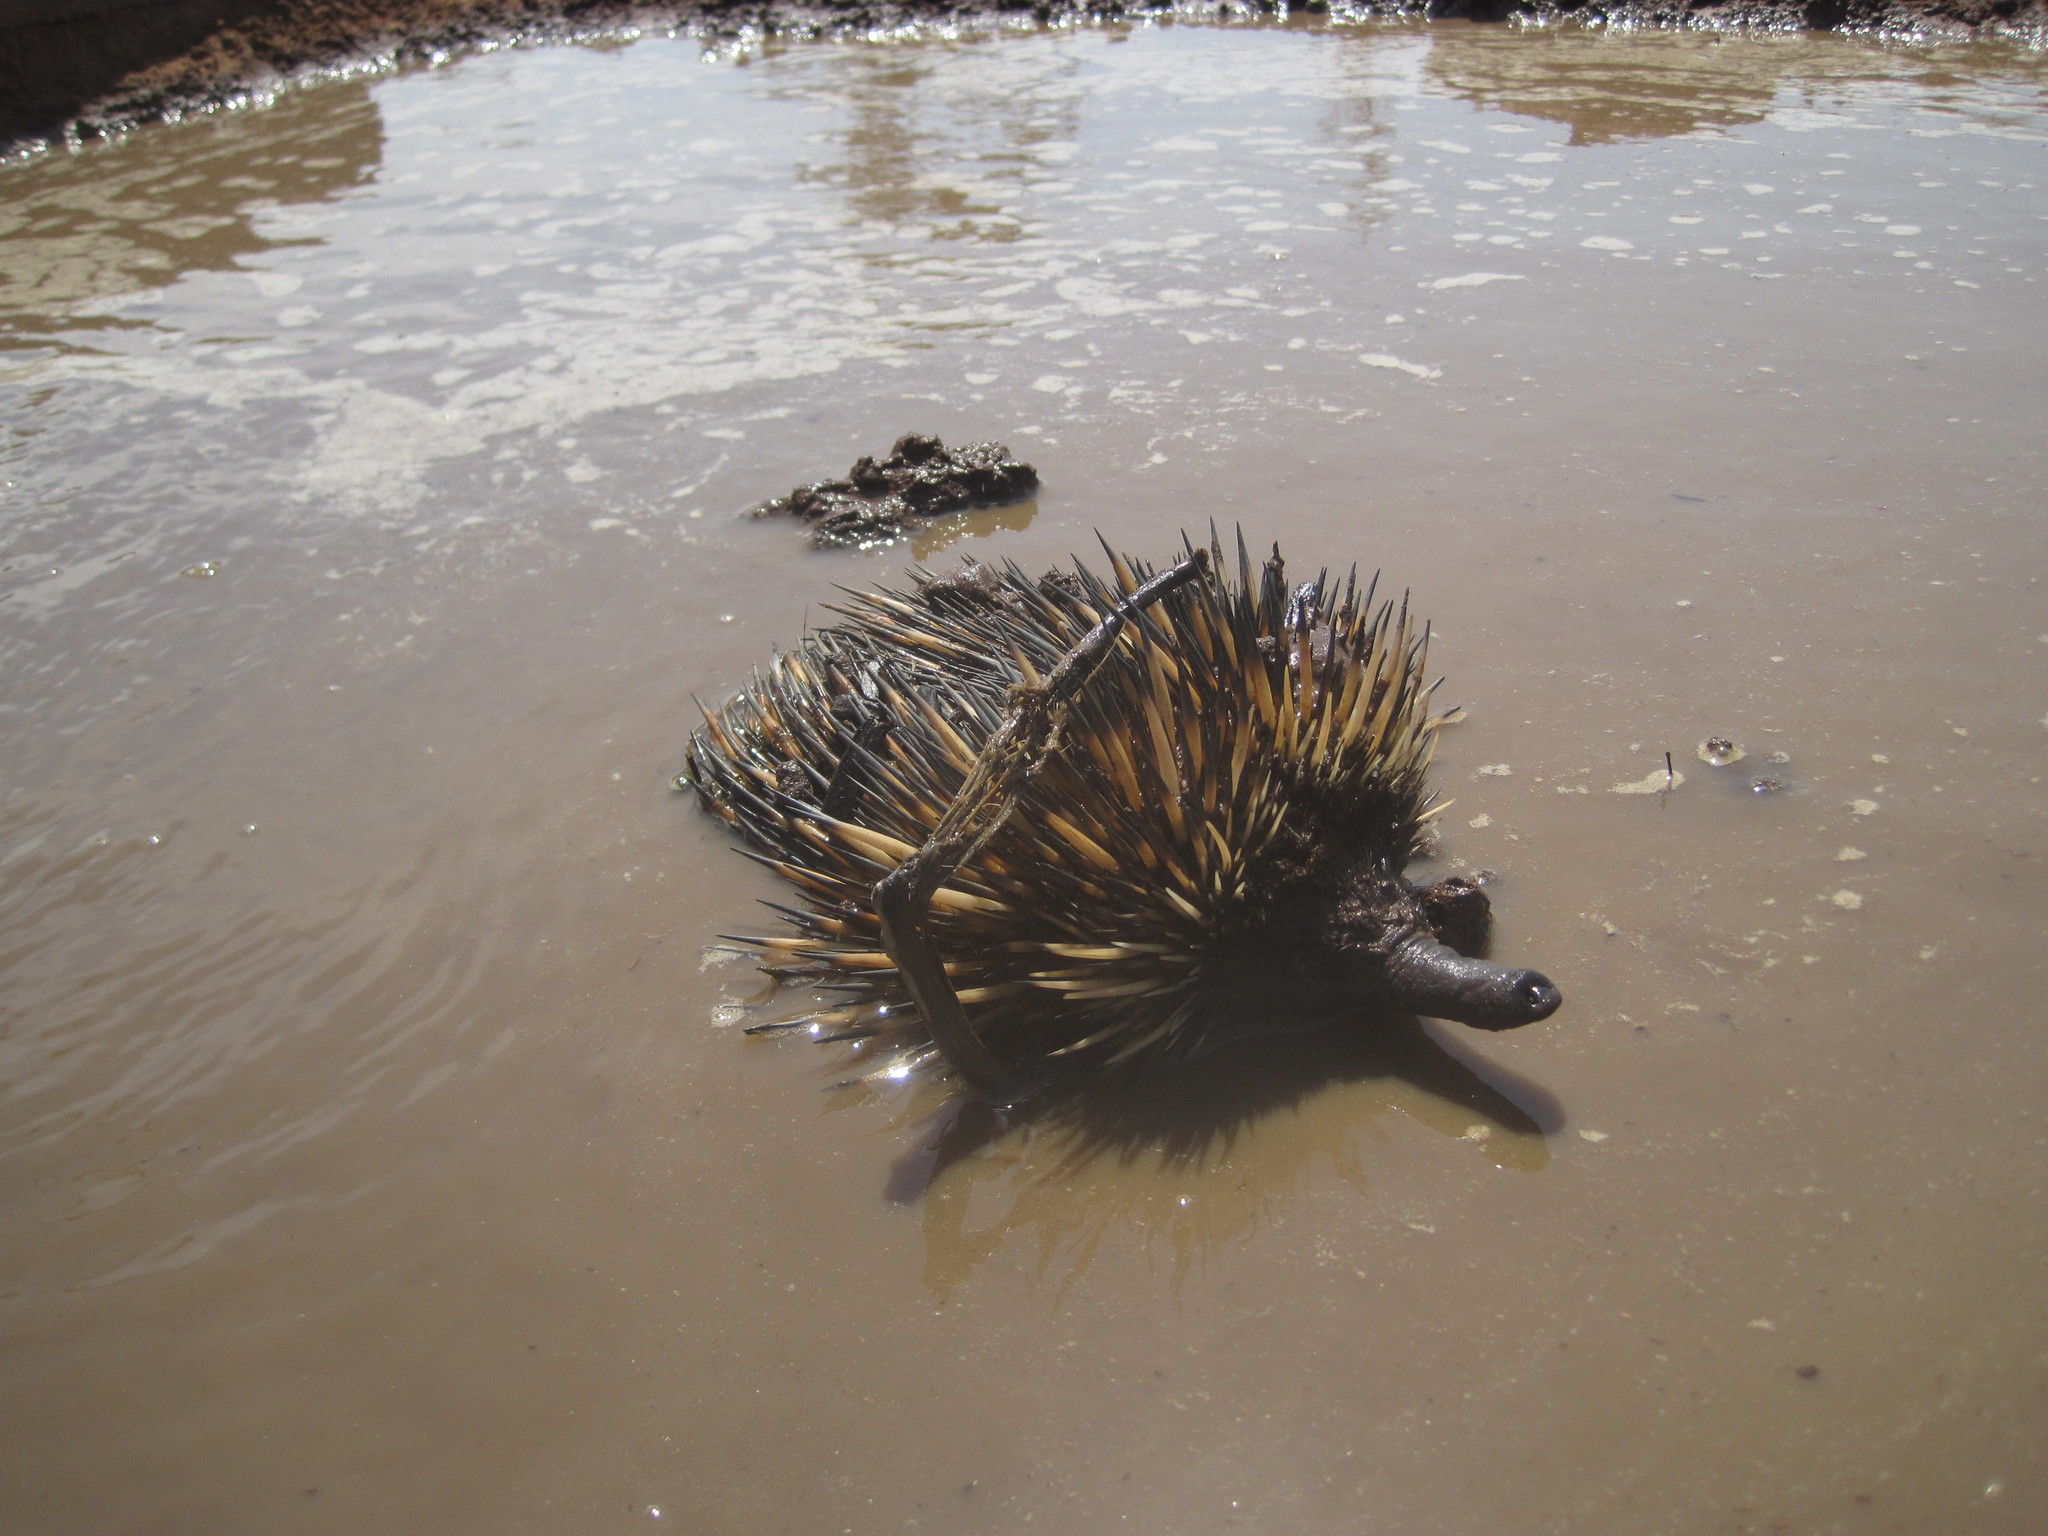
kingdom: Animalia
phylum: Chordata
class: Mammalia
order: Monotremata
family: Tachyglossidae
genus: Tachyglossus
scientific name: Tachyglossus aculeatus
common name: Short-beaked echidna
